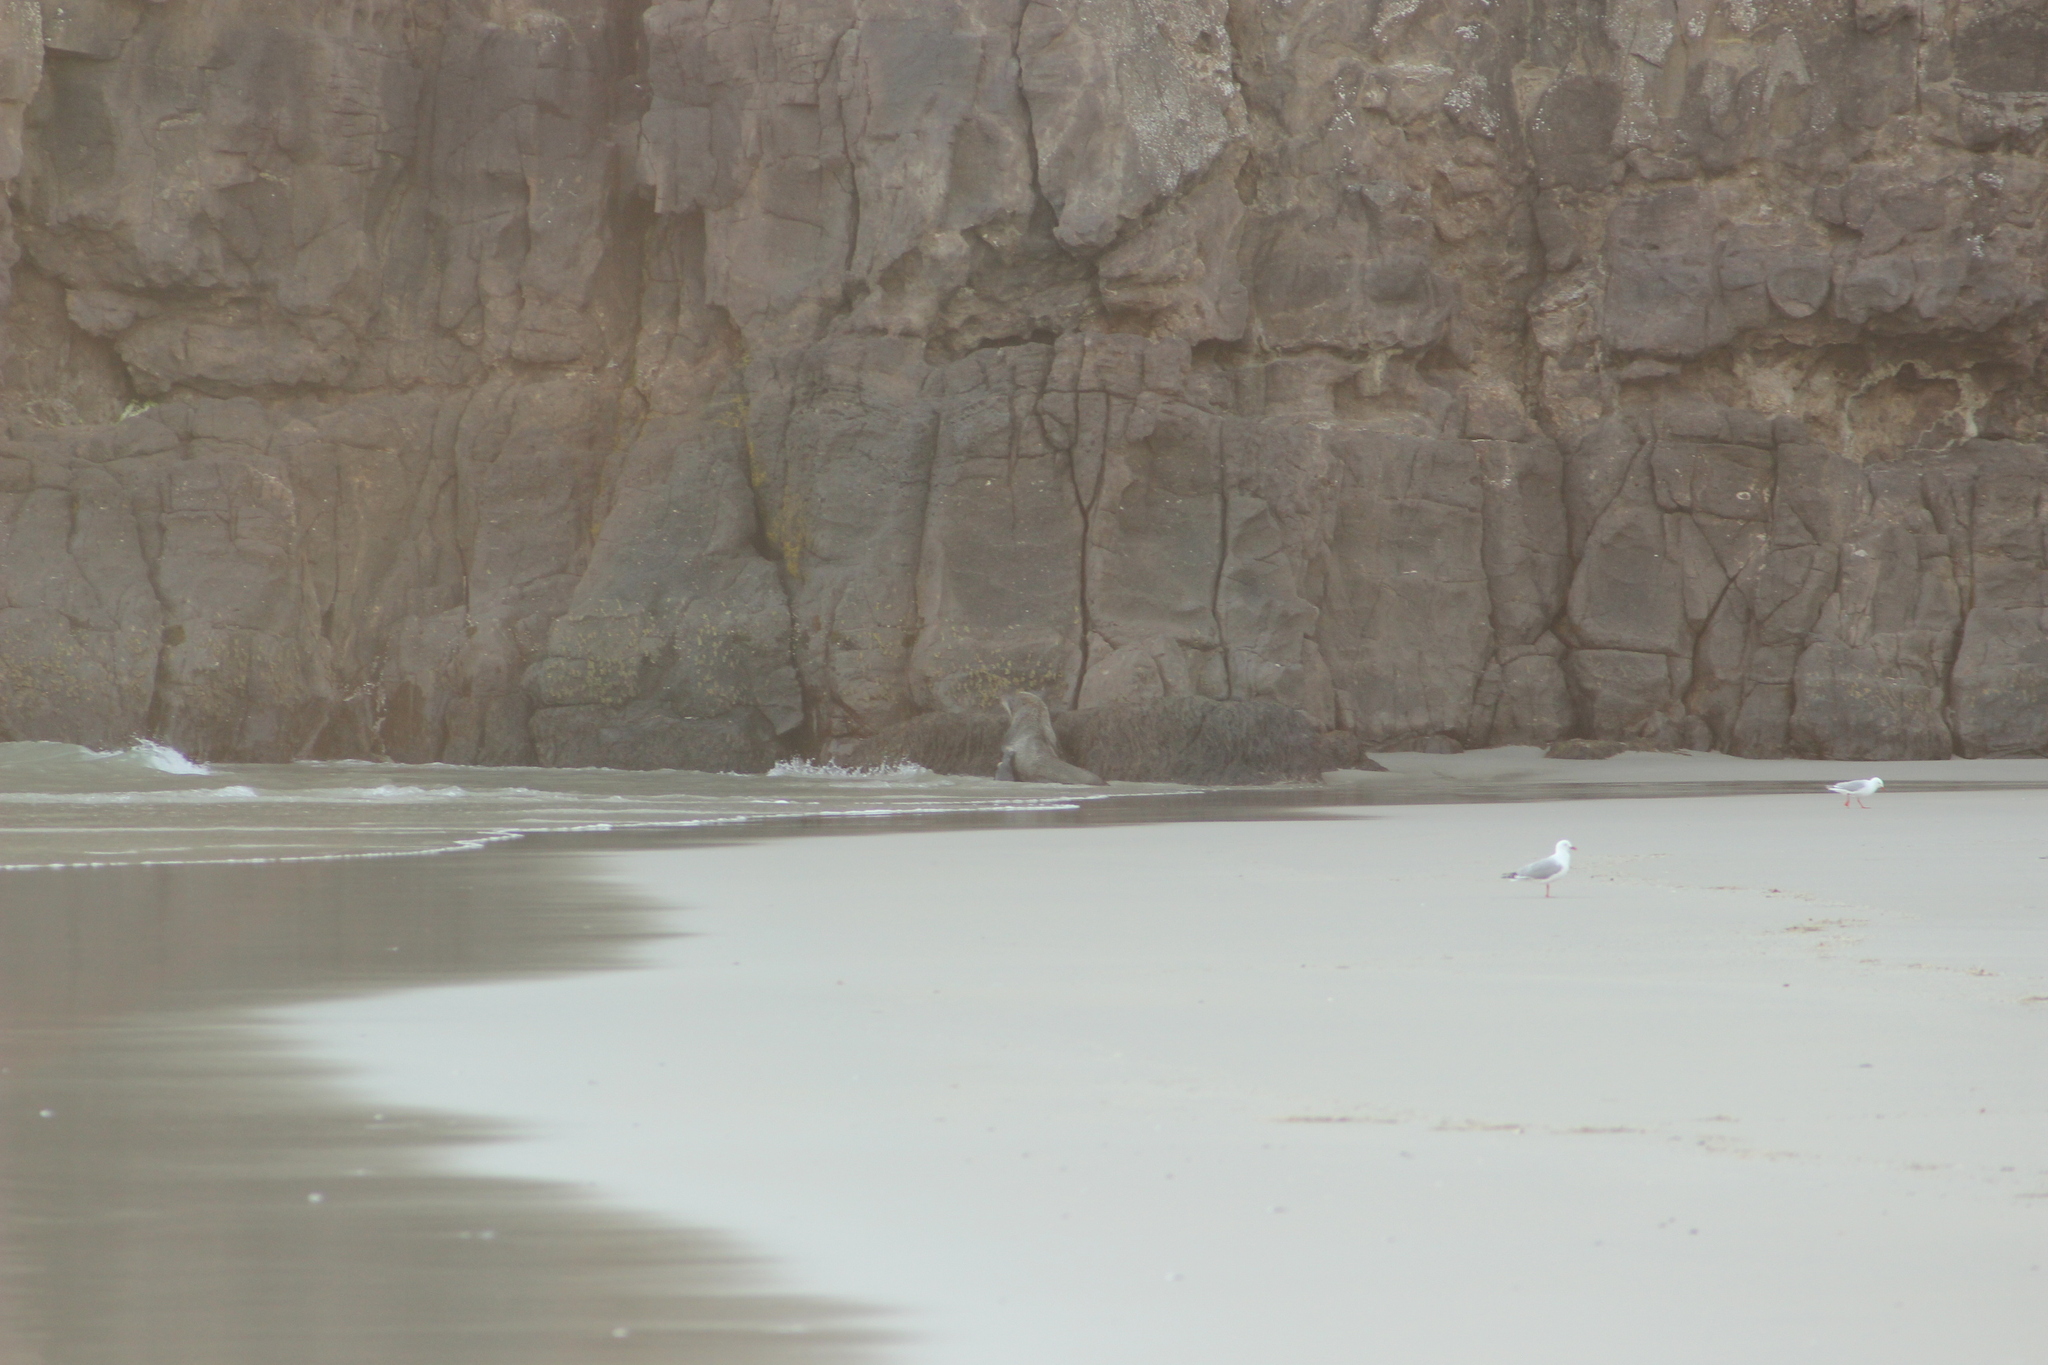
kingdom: Animalia
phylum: Chordata
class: Mammalia
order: Carnivora
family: Otariidae
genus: Arctocephalus
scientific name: Arctocephalus forsteri
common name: New zealand fur seal
